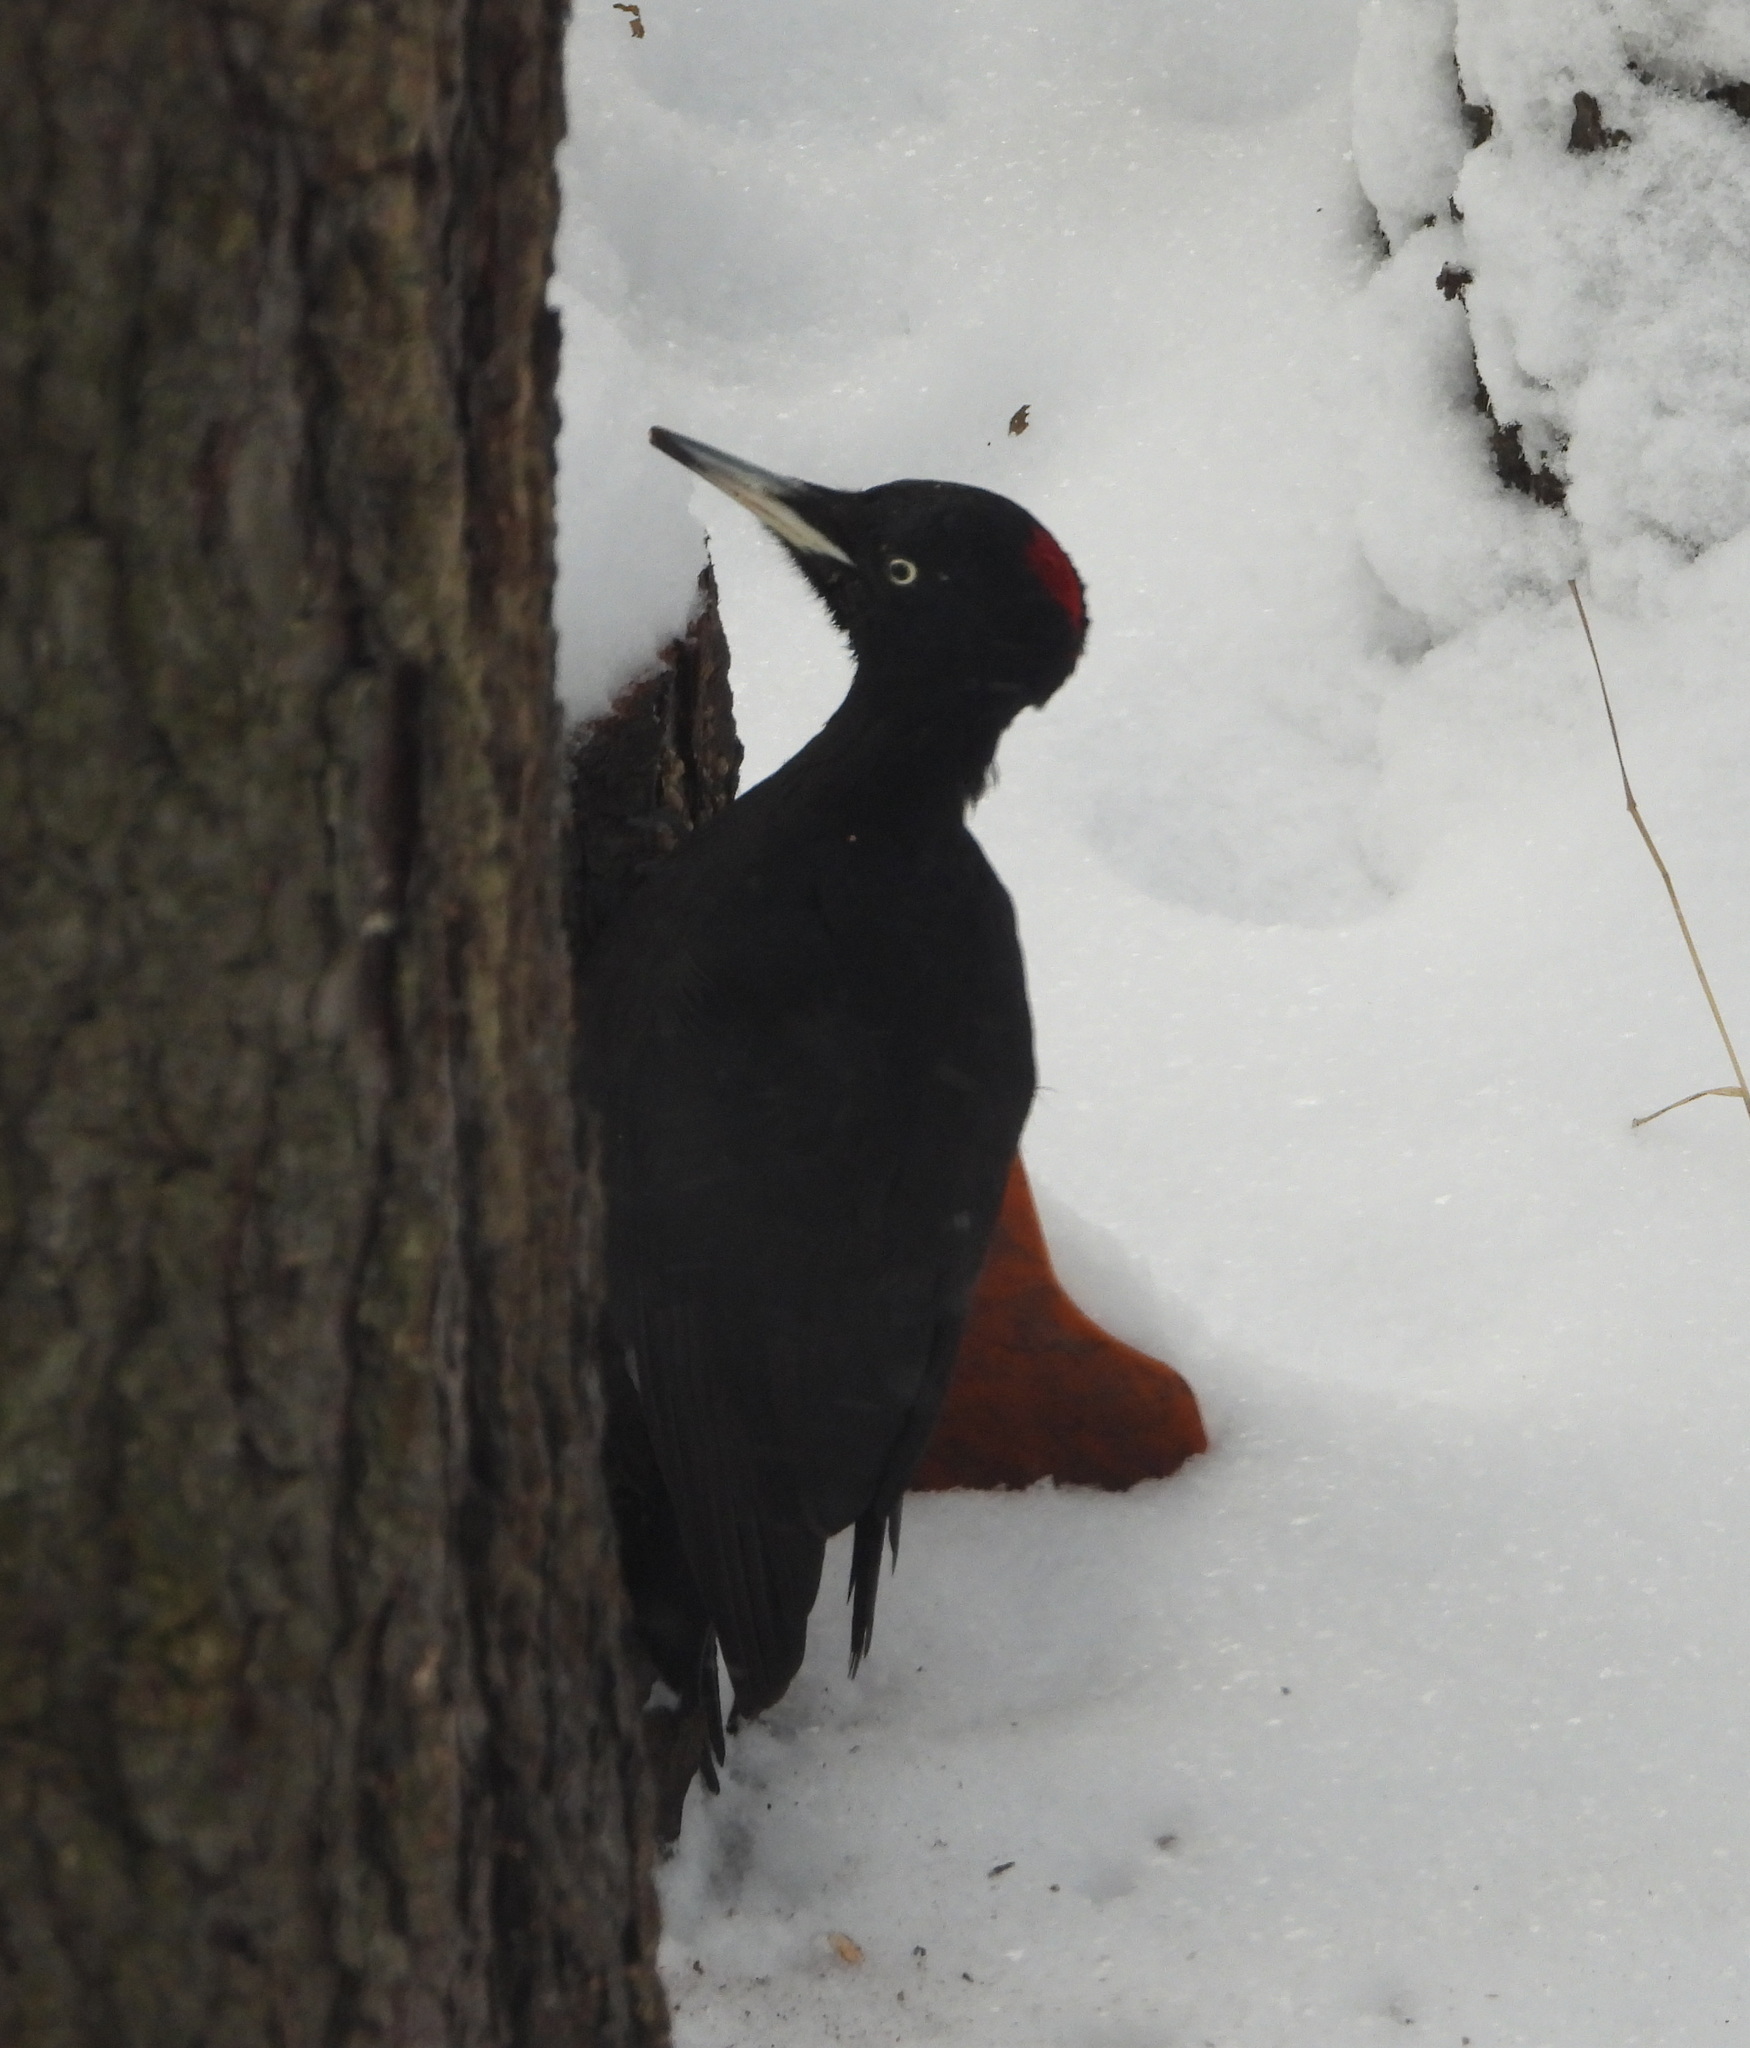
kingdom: Animalia
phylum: Chordata
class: Aves
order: Piciformes
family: Picidae
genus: Dryocopus
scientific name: Dryocopus martius
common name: Black woodpecker
